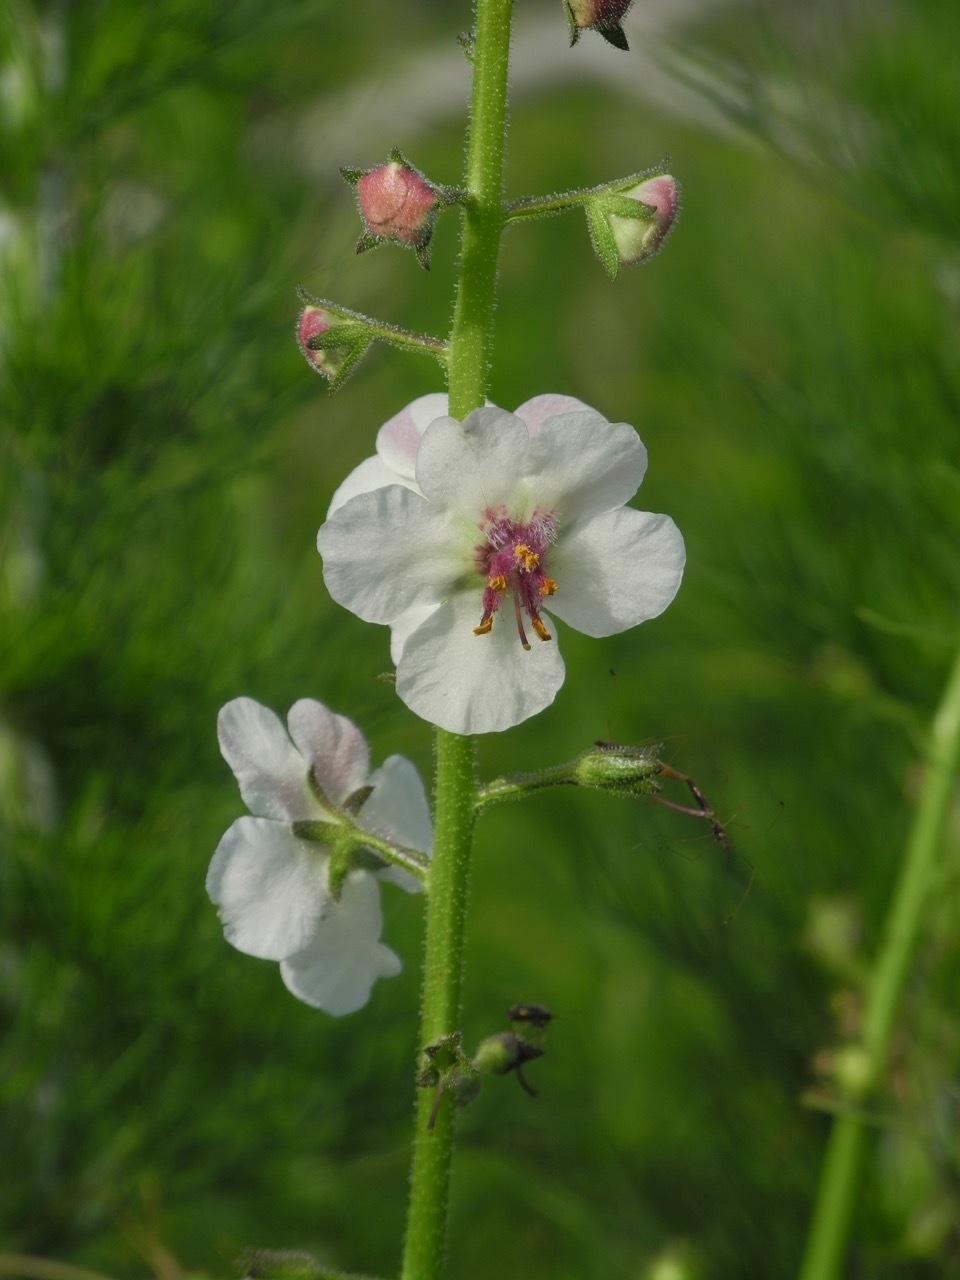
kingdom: Plantae
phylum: Tracheophyta
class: Magnoliopsida
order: Lamiales
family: Scrophulariaceae
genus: Verbascum
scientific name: Verbascum blattaria
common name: Moth mullein
